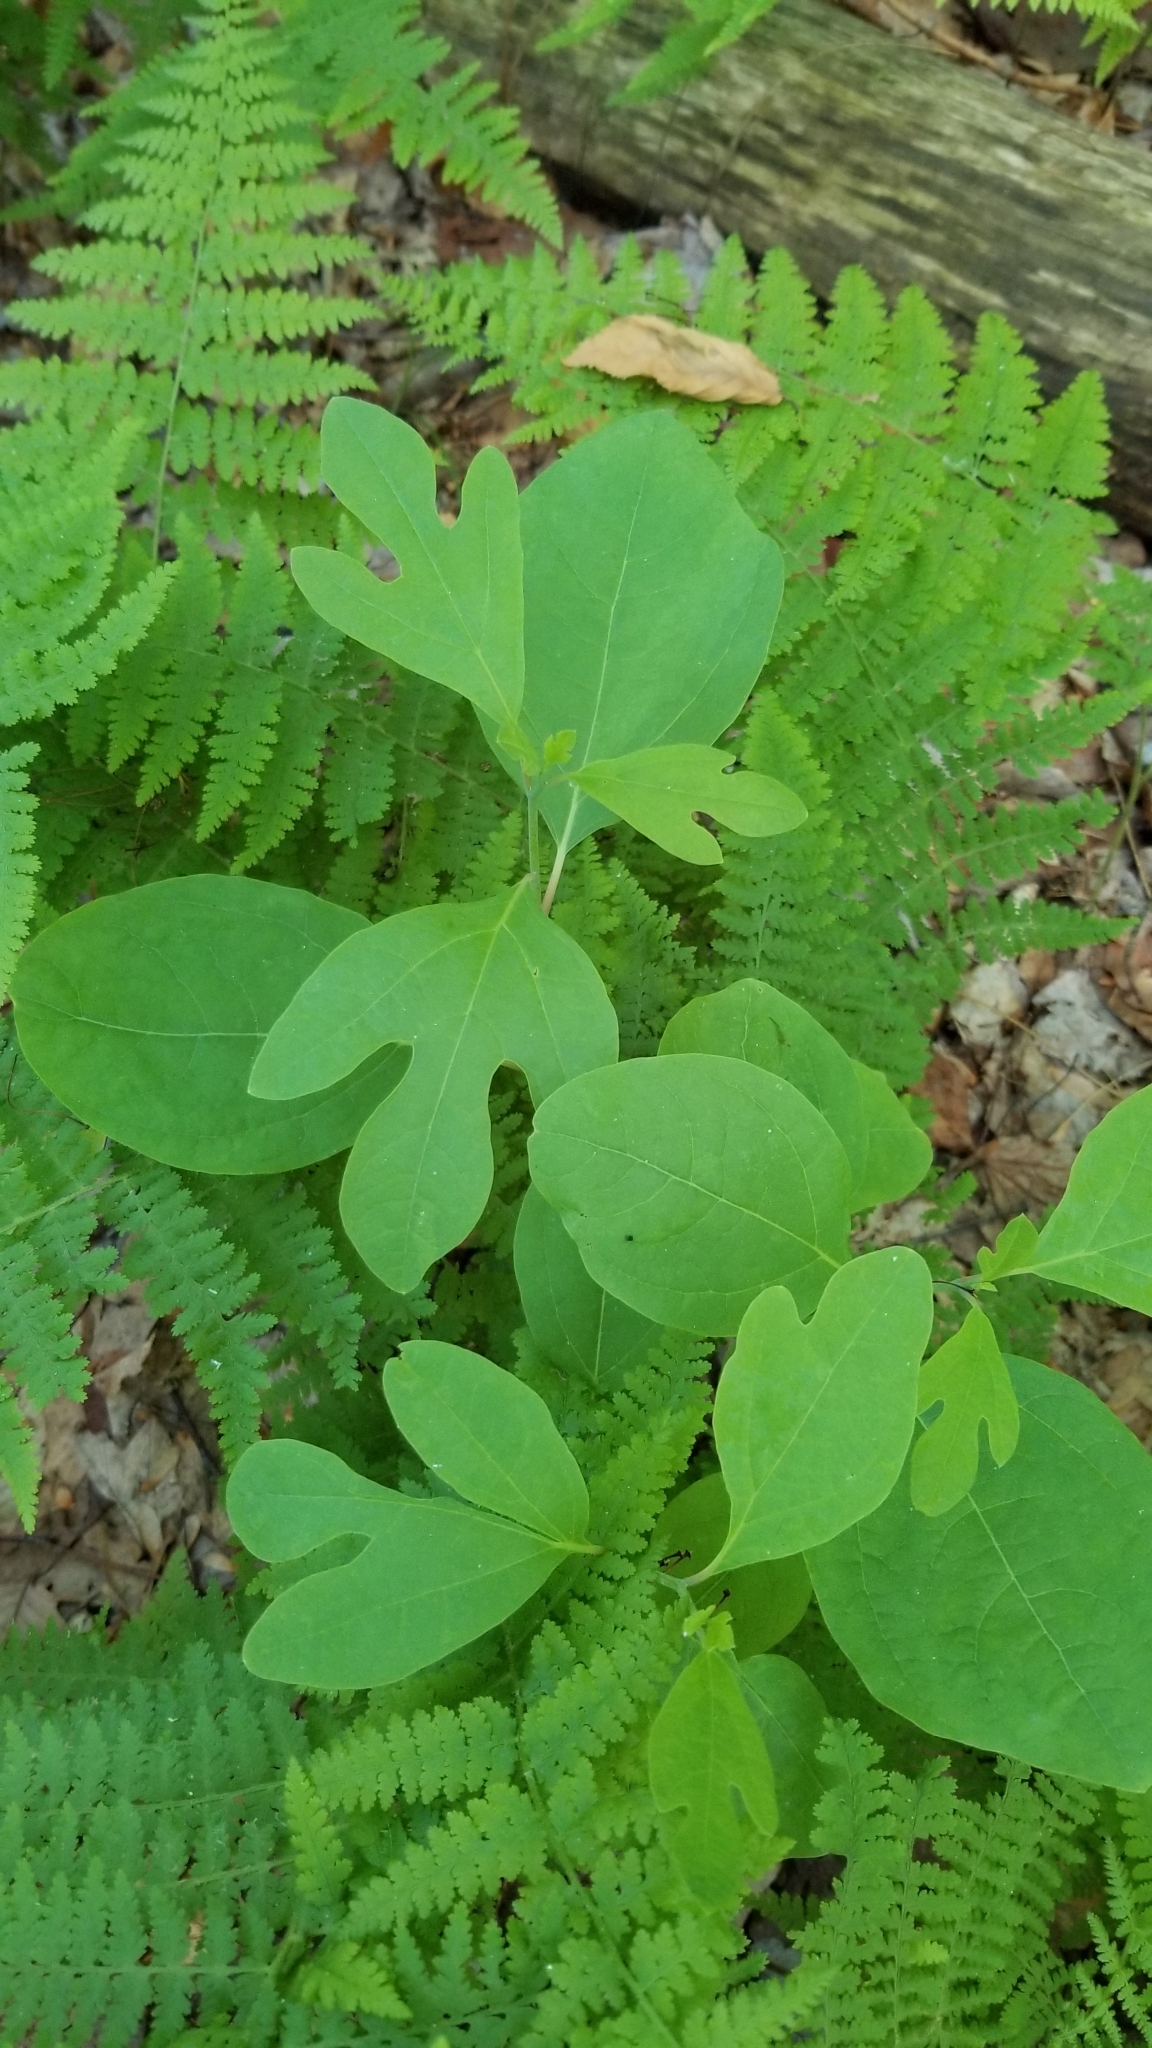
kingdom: Plantae
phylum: Tracheophyta
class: Magnoliopsida
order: Laurales
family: Lauraceae
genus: Sassafras
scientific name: Sassafras albidum
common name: Sassafras
